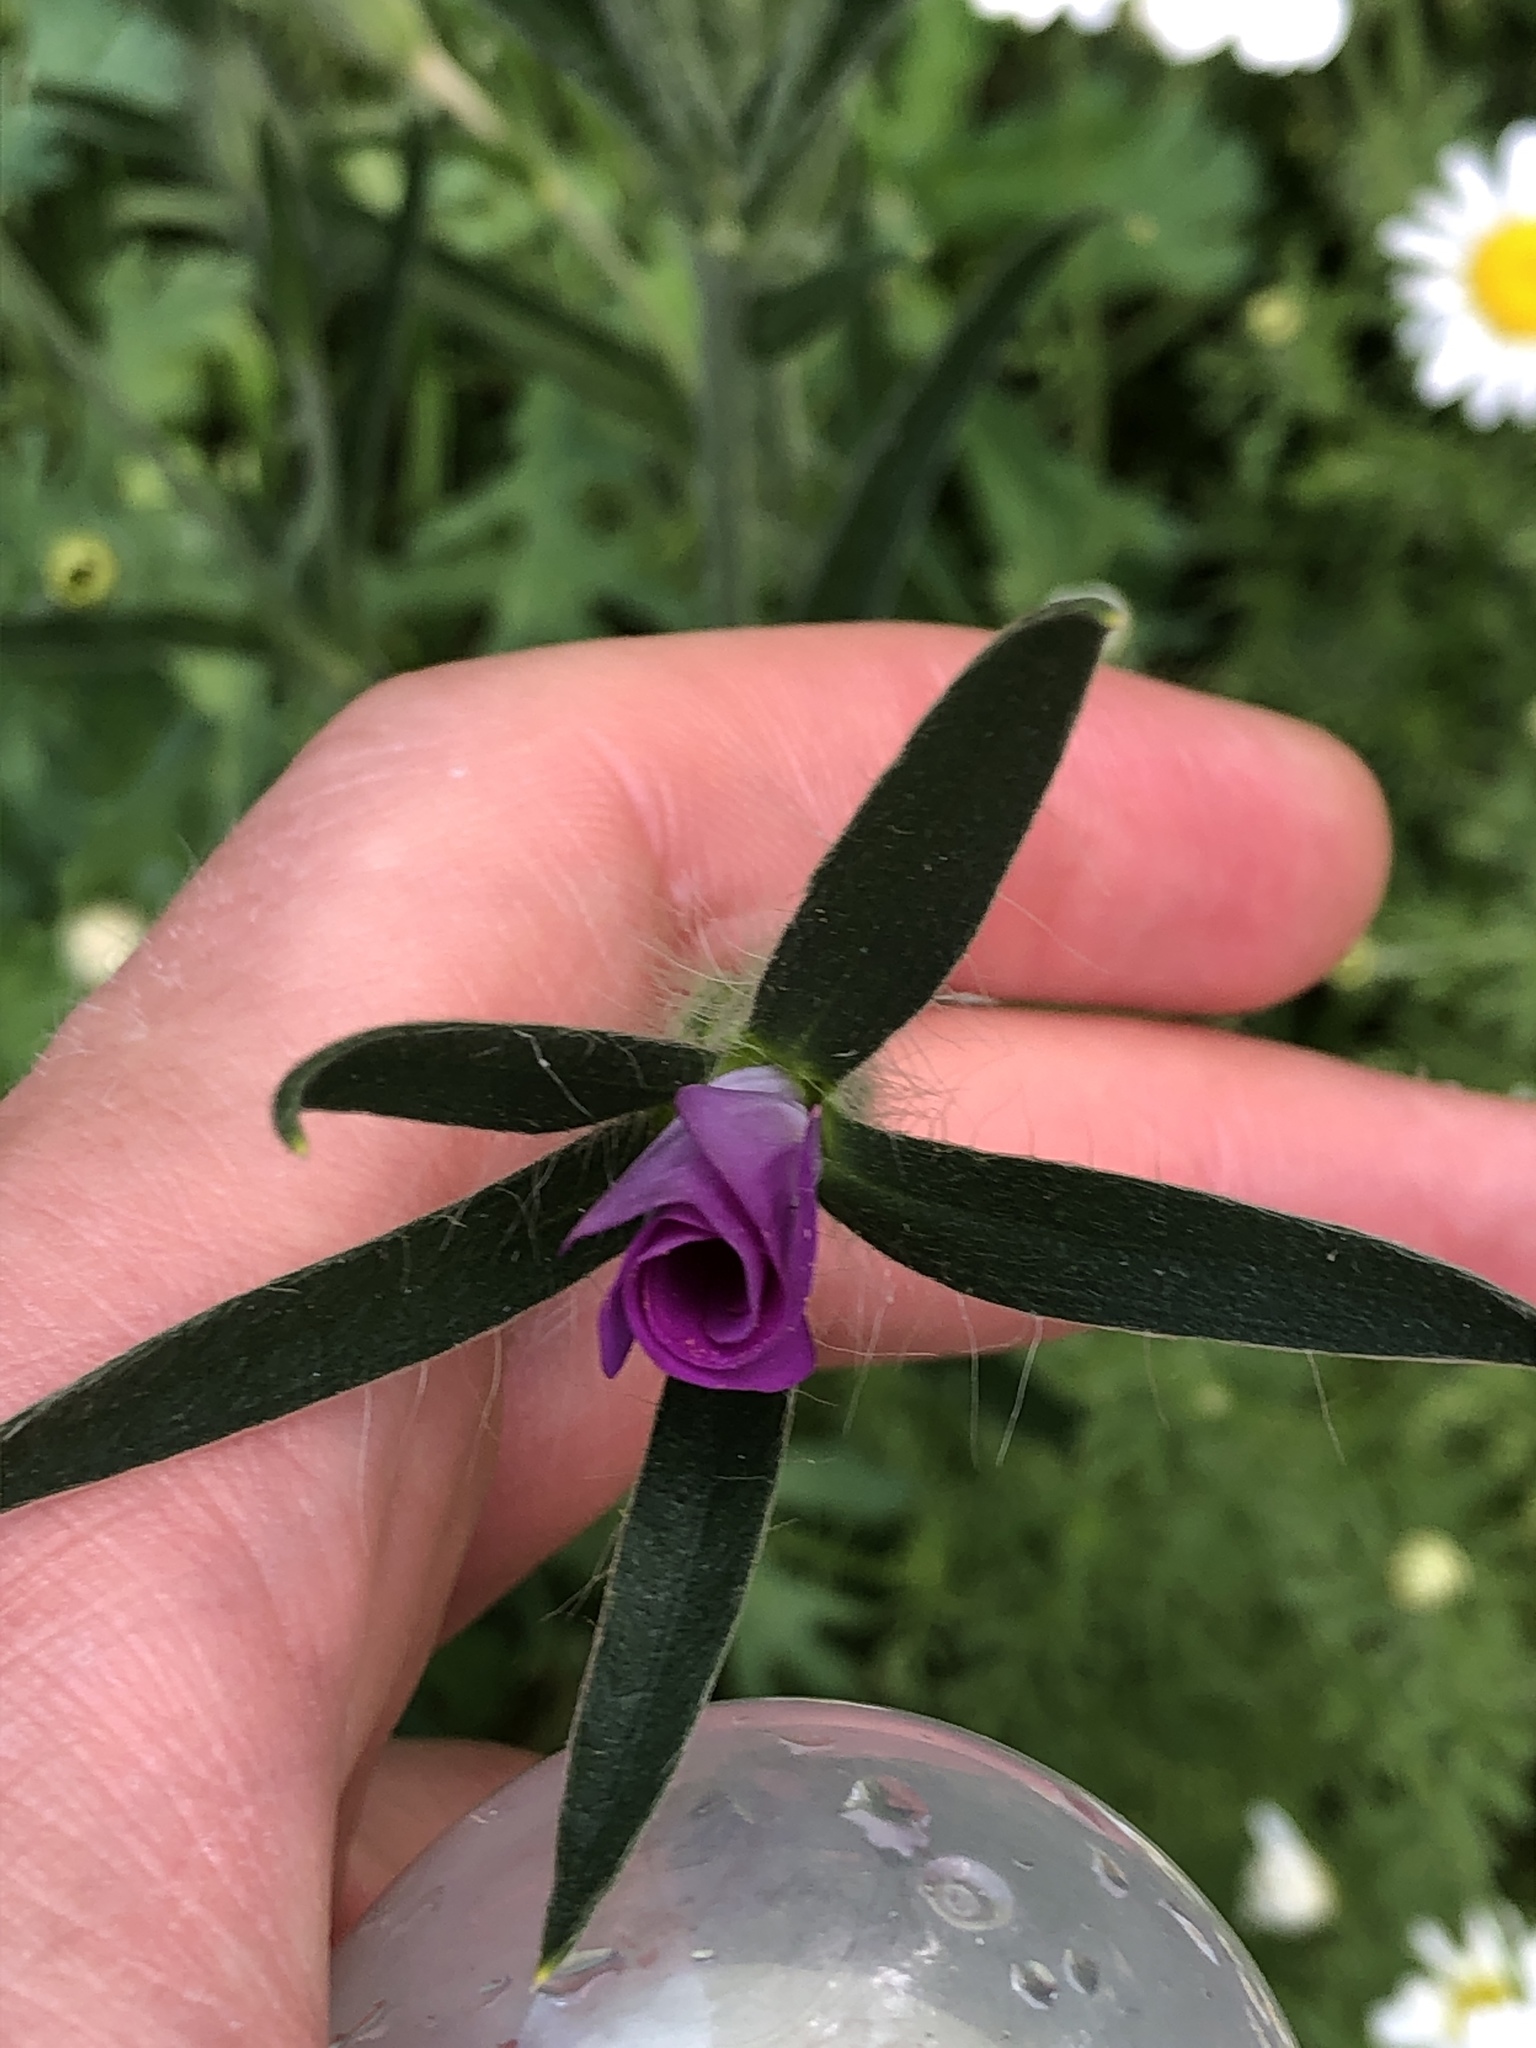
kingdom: Plantae
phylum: Tracheophyta
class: Magnoliopsida
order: Caryophyllales
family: Caryophyllaceae
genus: Agrostemma
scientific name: Agrostemma githago
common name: Common corncockle
